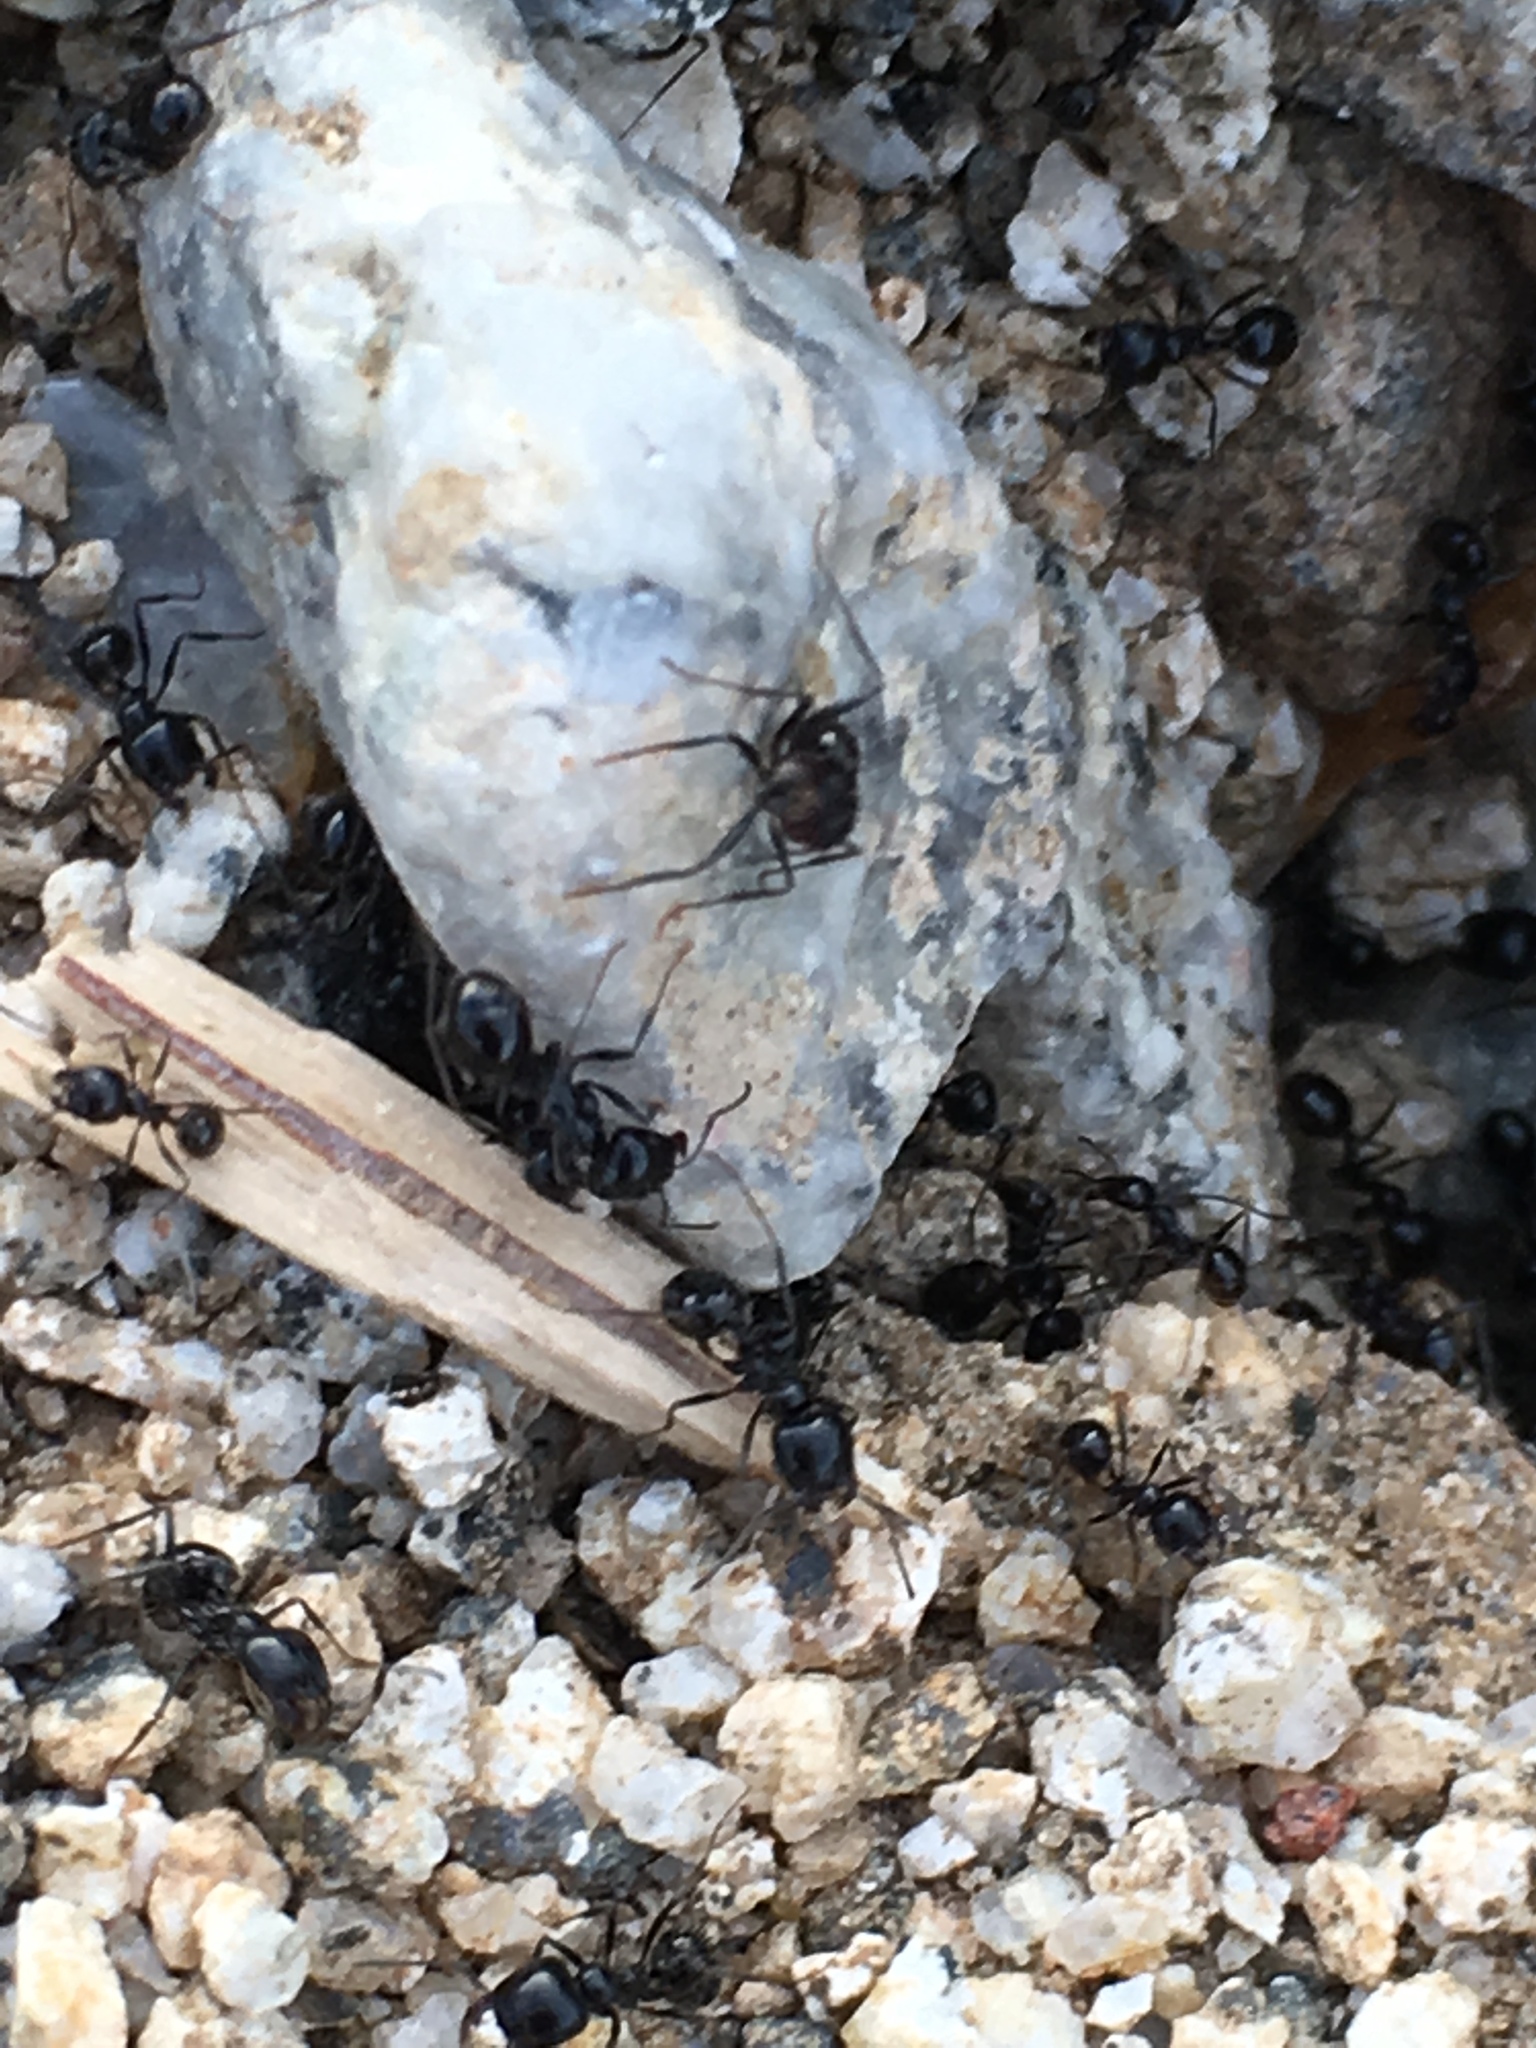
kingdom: Animalia
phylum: Arthropoda
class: Insecta
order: Hymenoptera
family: Formicidae
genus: Messor
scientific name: Messor pergandei
